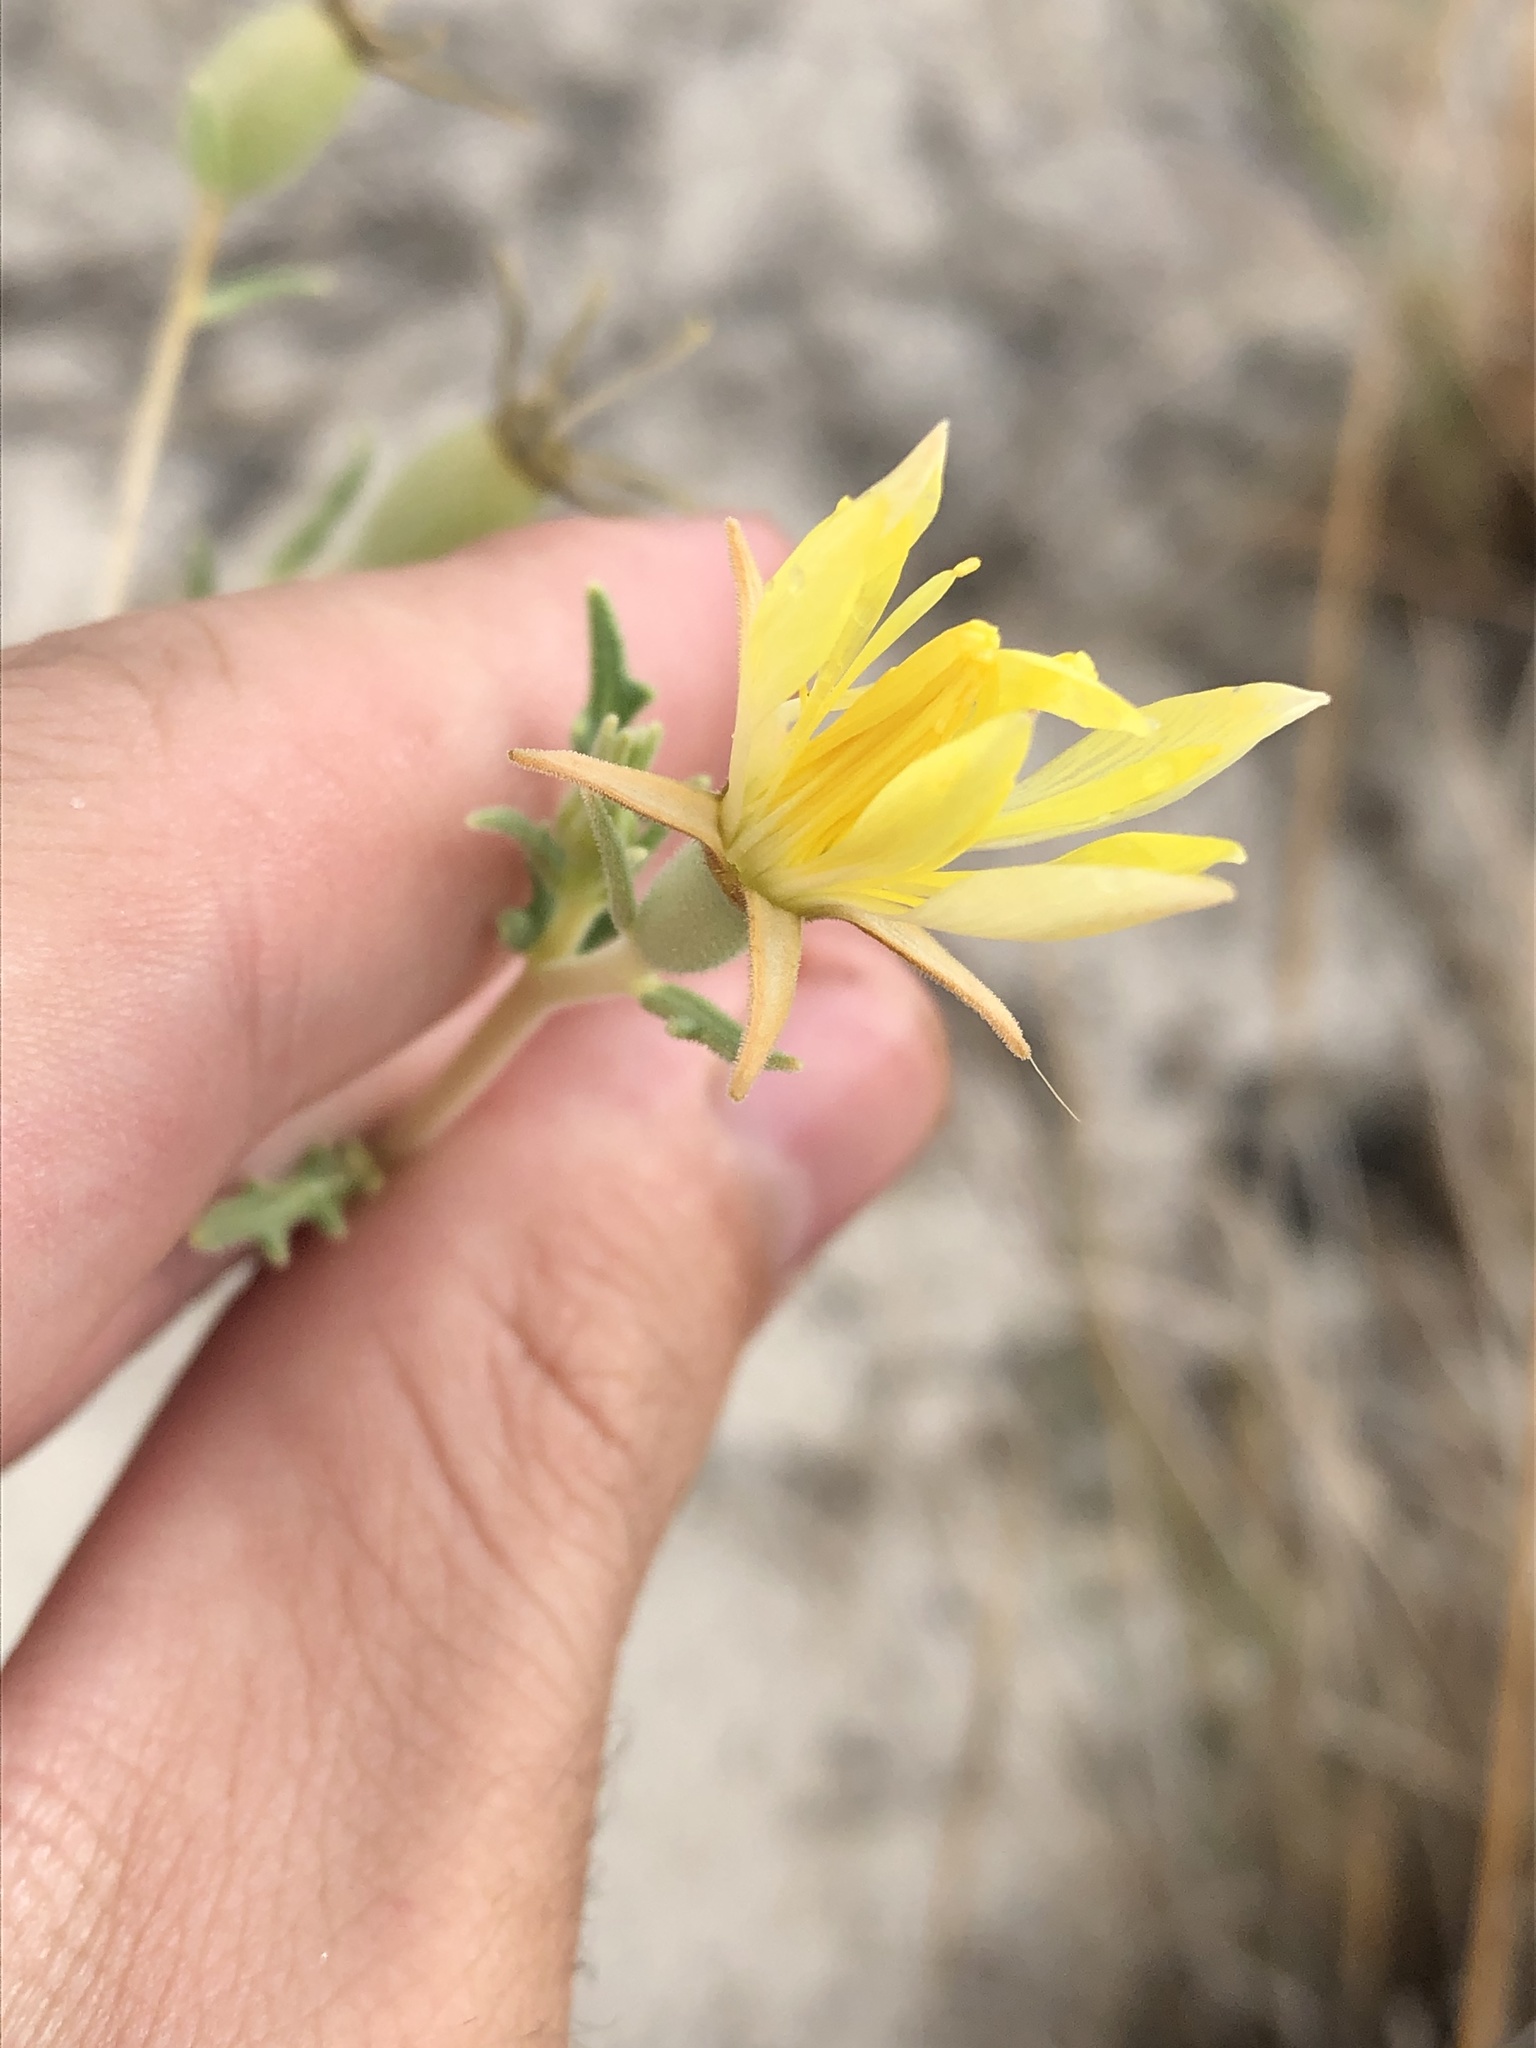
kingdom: Plantae
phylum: Tracheophyta
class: Magnoliopsida
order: Cornales
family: Loasaceae
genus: Mentzelia
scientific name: Mentzelia procera
